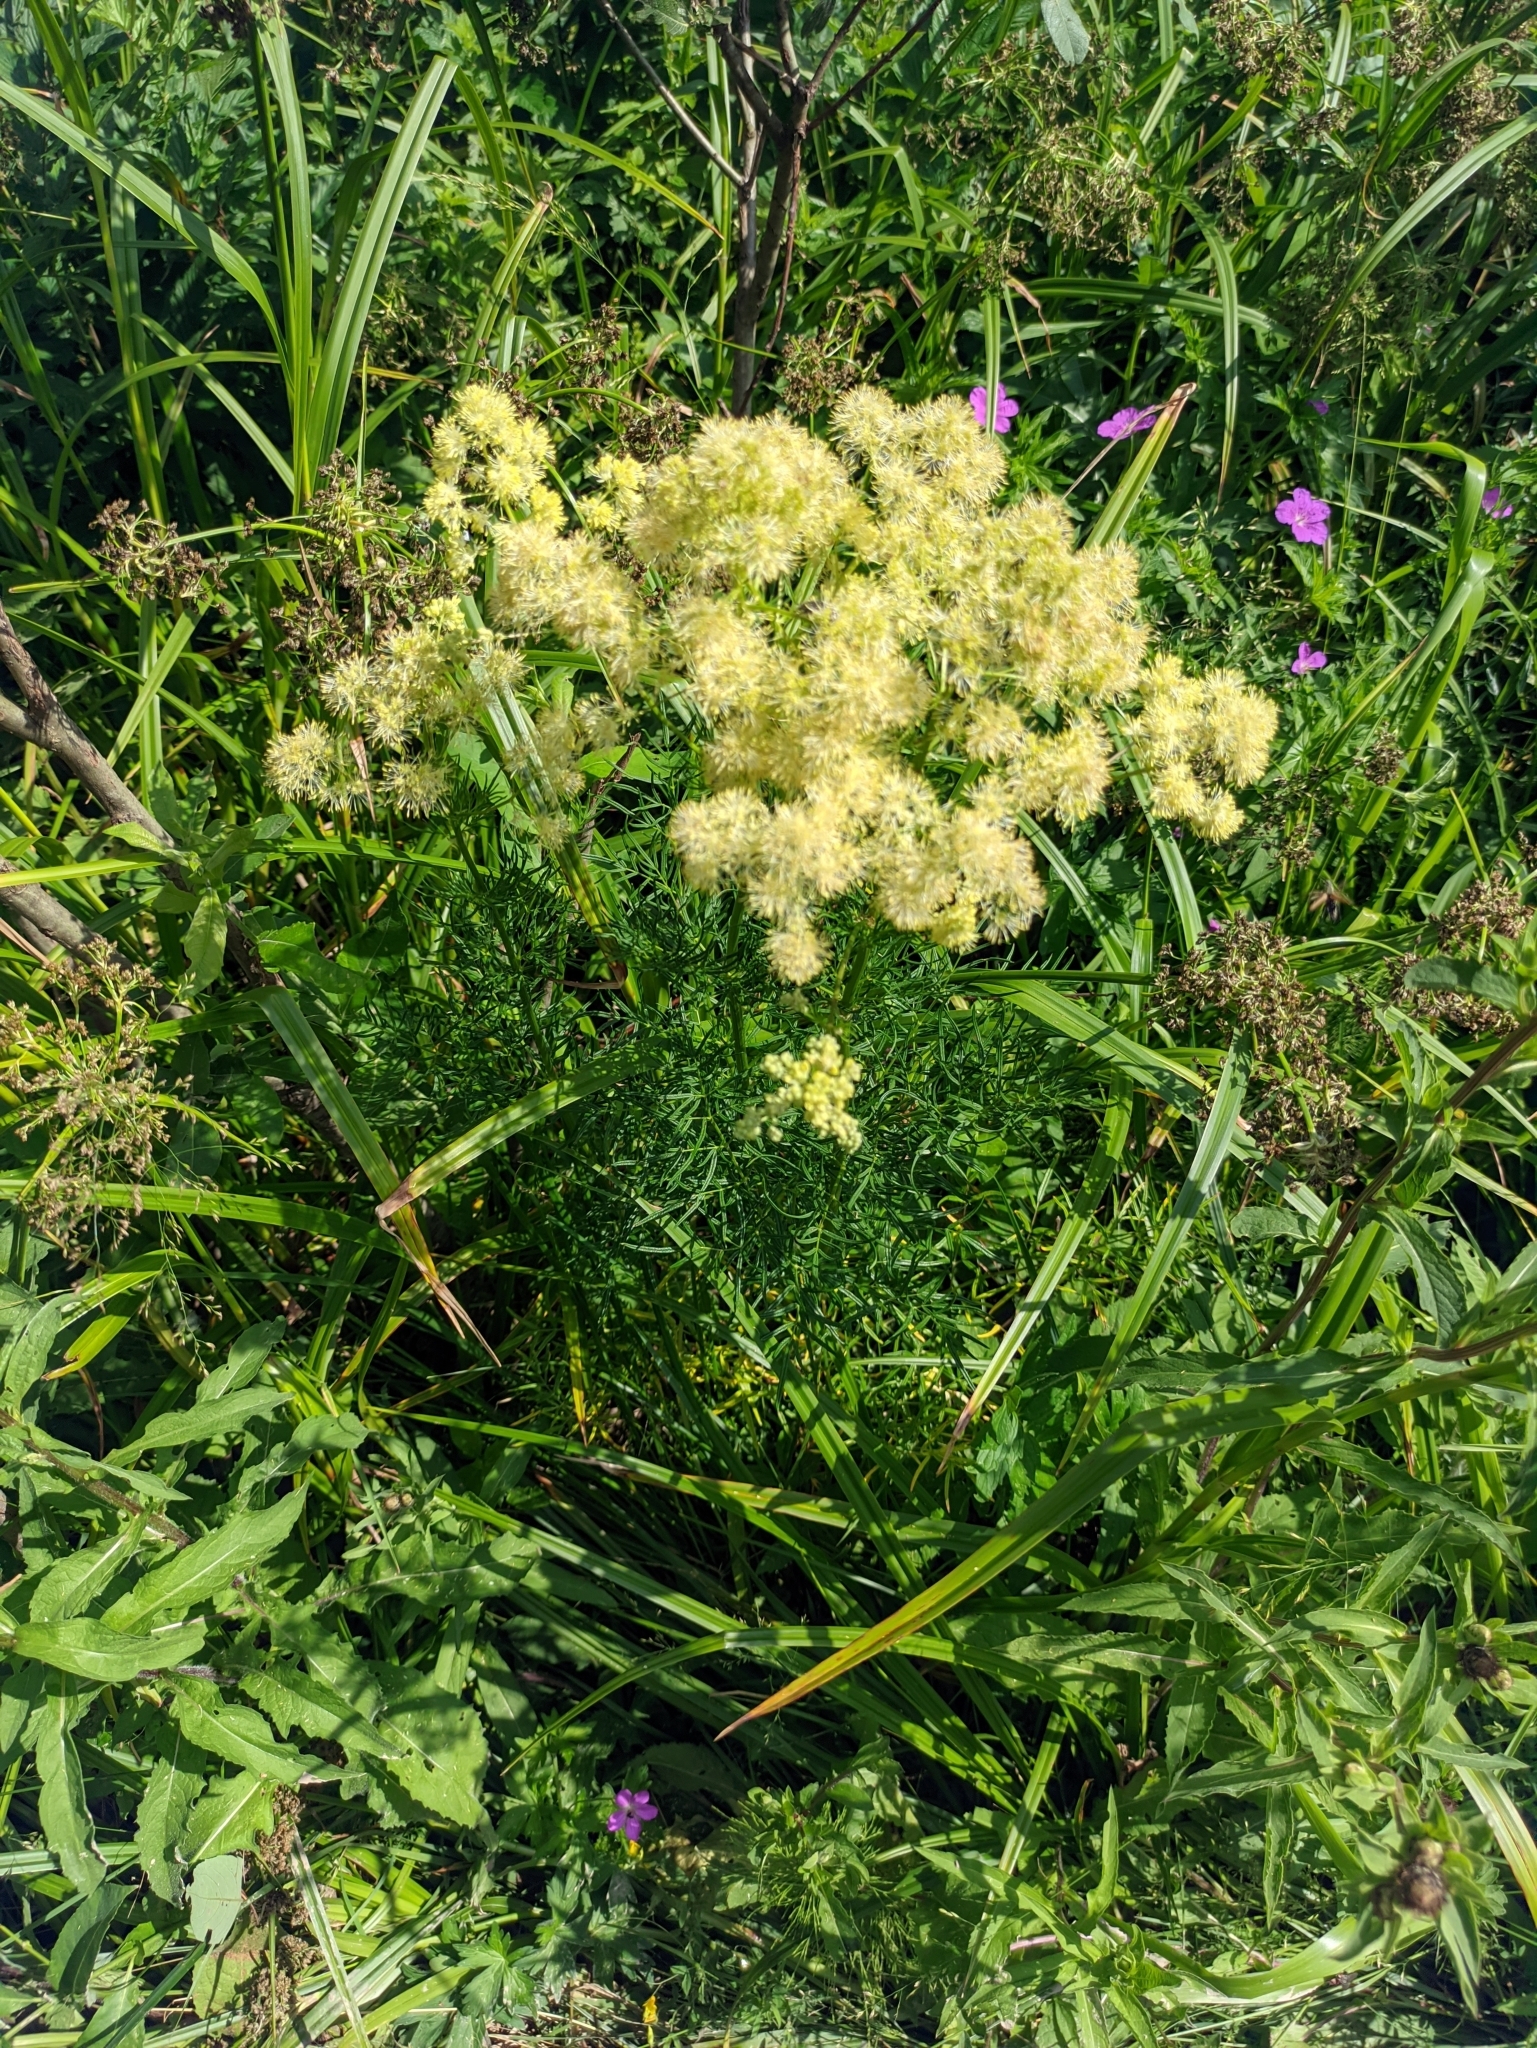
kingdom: Plantae
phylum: Tracheophyta
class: Magnoliopsida
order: Ranunculales
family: Ranunculaceae
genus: Thalictrum
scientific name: Thalictrum lucidum
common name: Shining meadow-rue
